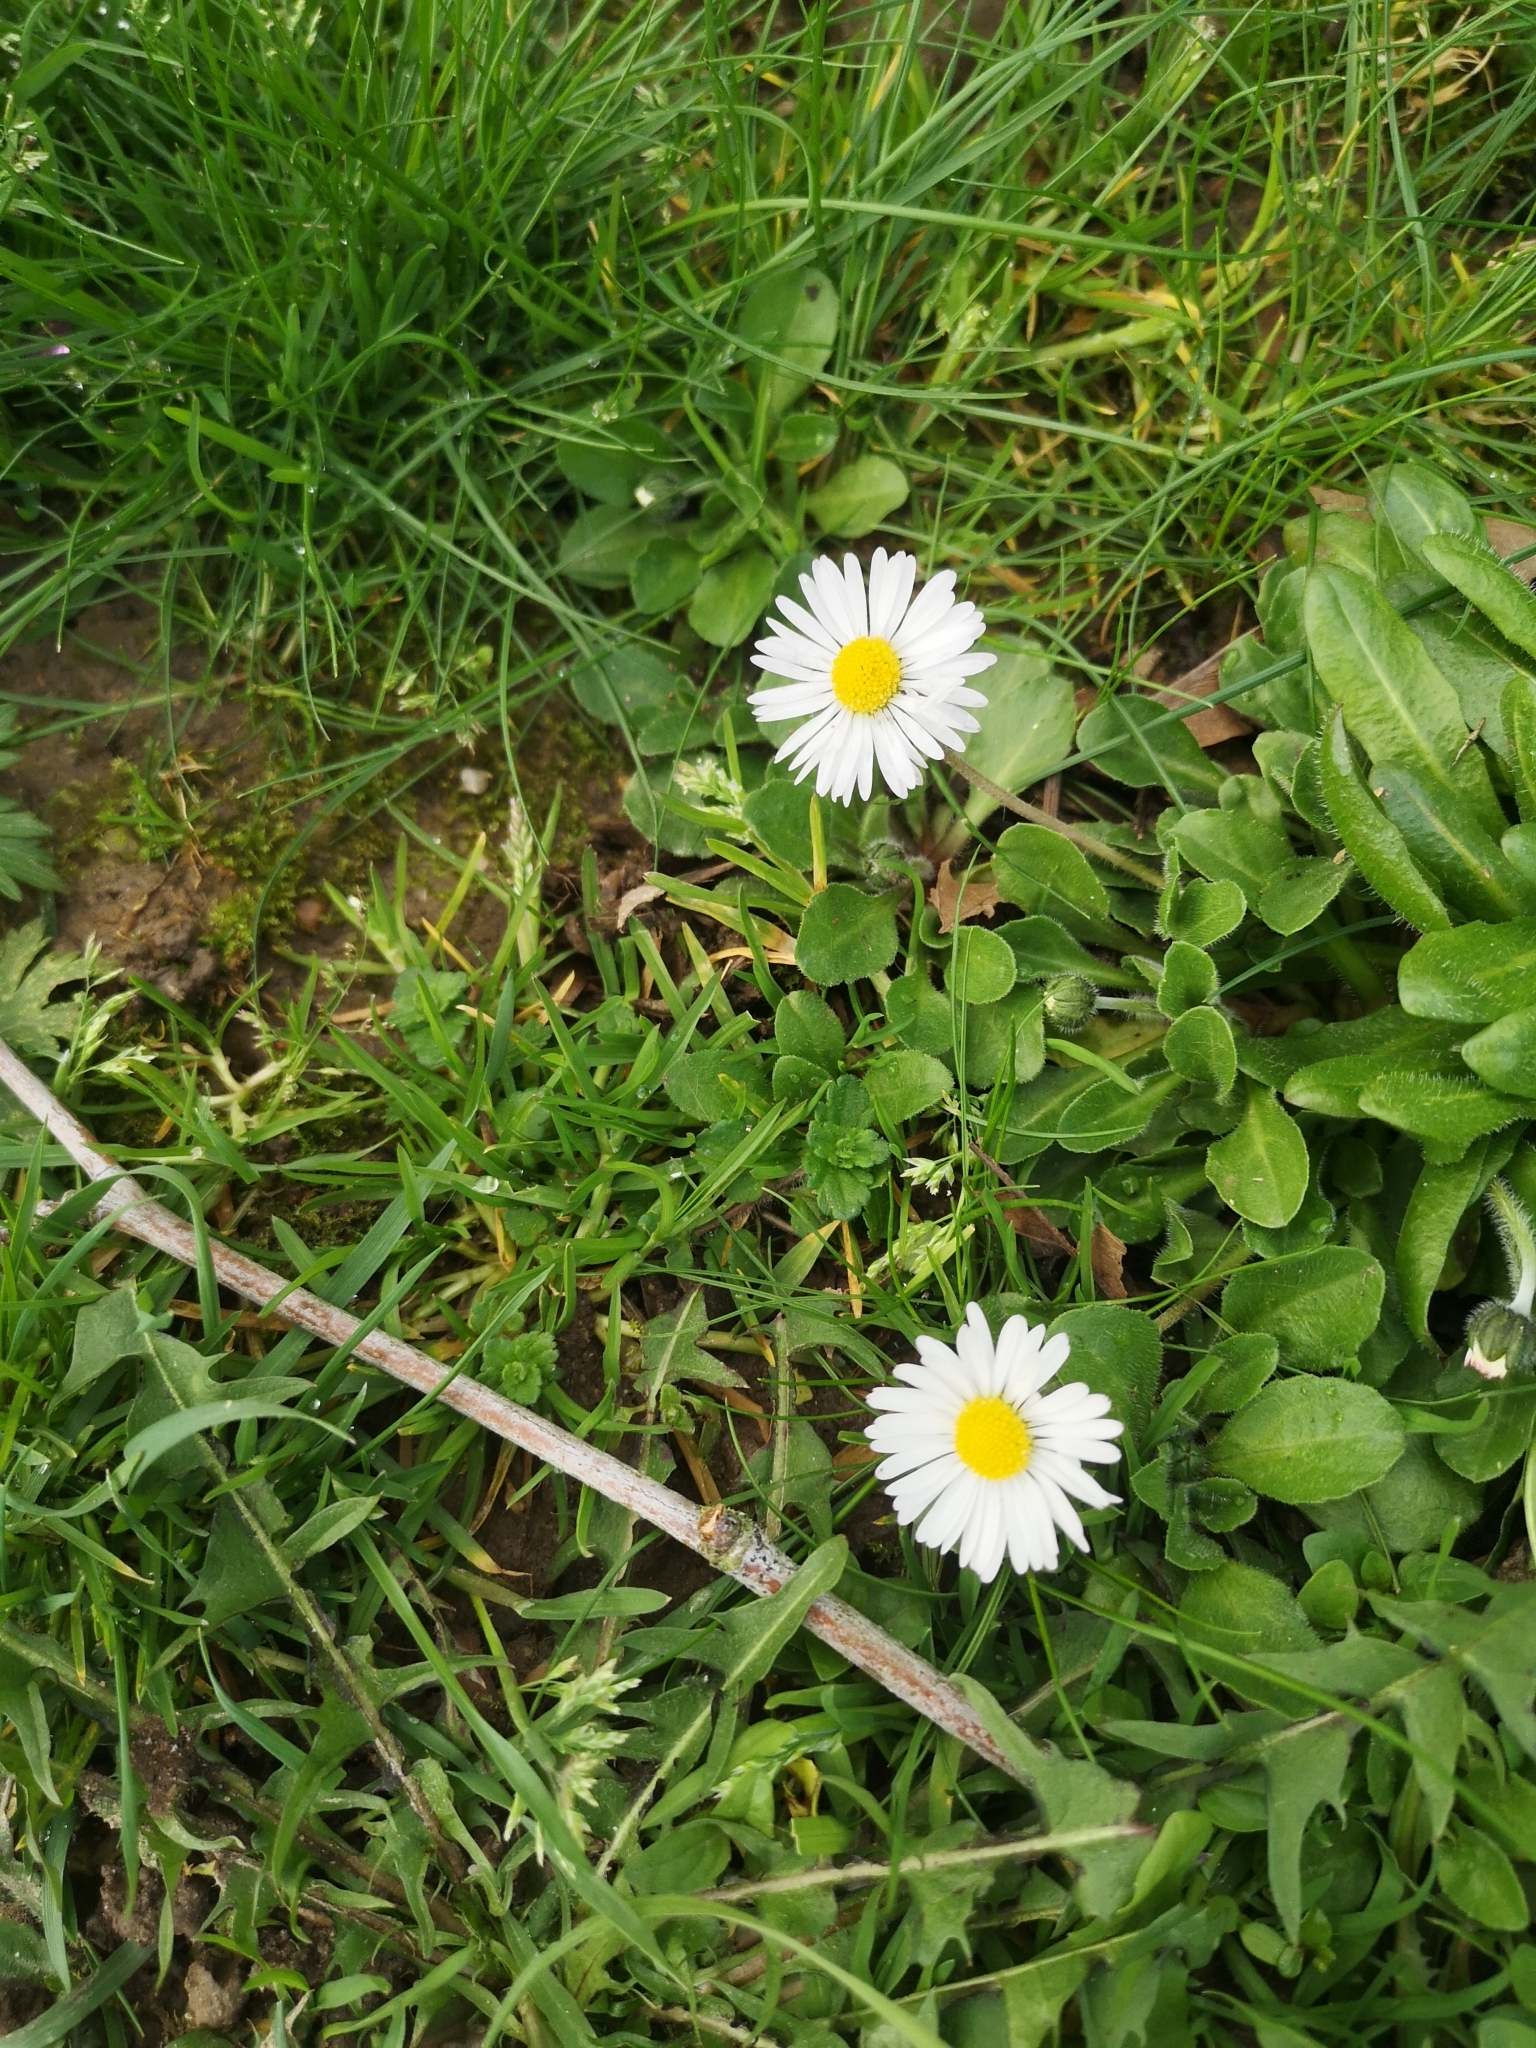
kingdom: Plantae
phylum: Tracheophyta
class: Magnoliopsida
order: Asterales
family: Asteraceae
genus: Bellis
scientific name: Bellis perennis
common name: Lawndaisy
